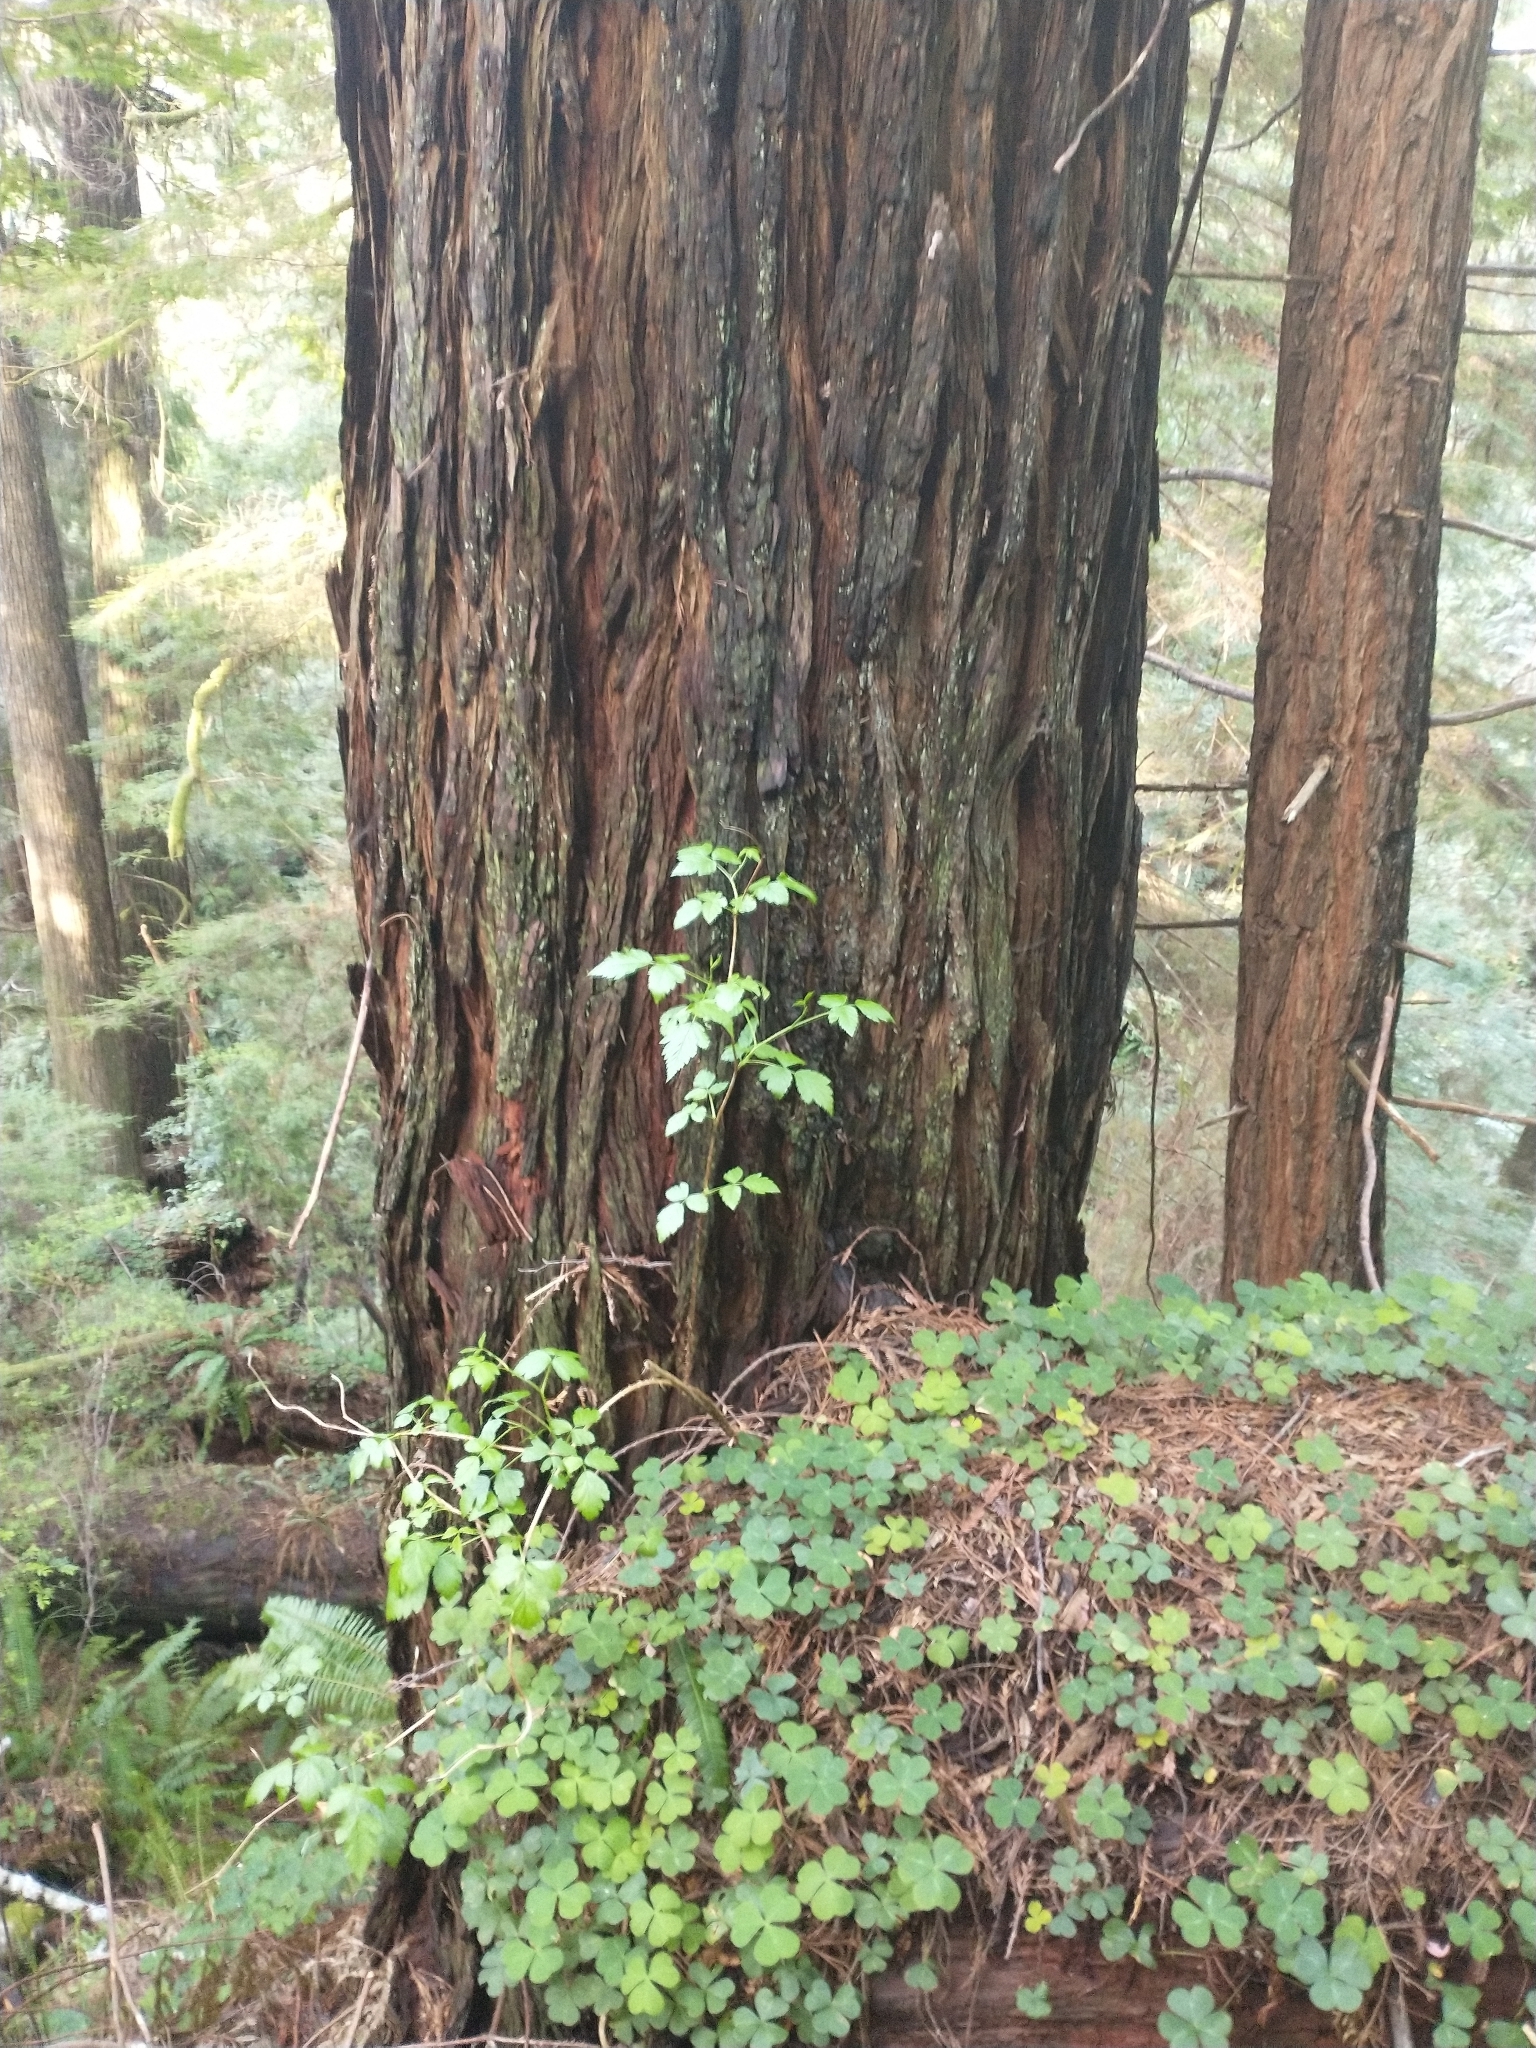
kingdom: Plantae
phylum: Tracheophyta
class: Pinopsida
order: Pinales
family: Cupressaceae
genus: Sequoia
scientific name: Sequoia sempervirens
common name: Coast redwood
